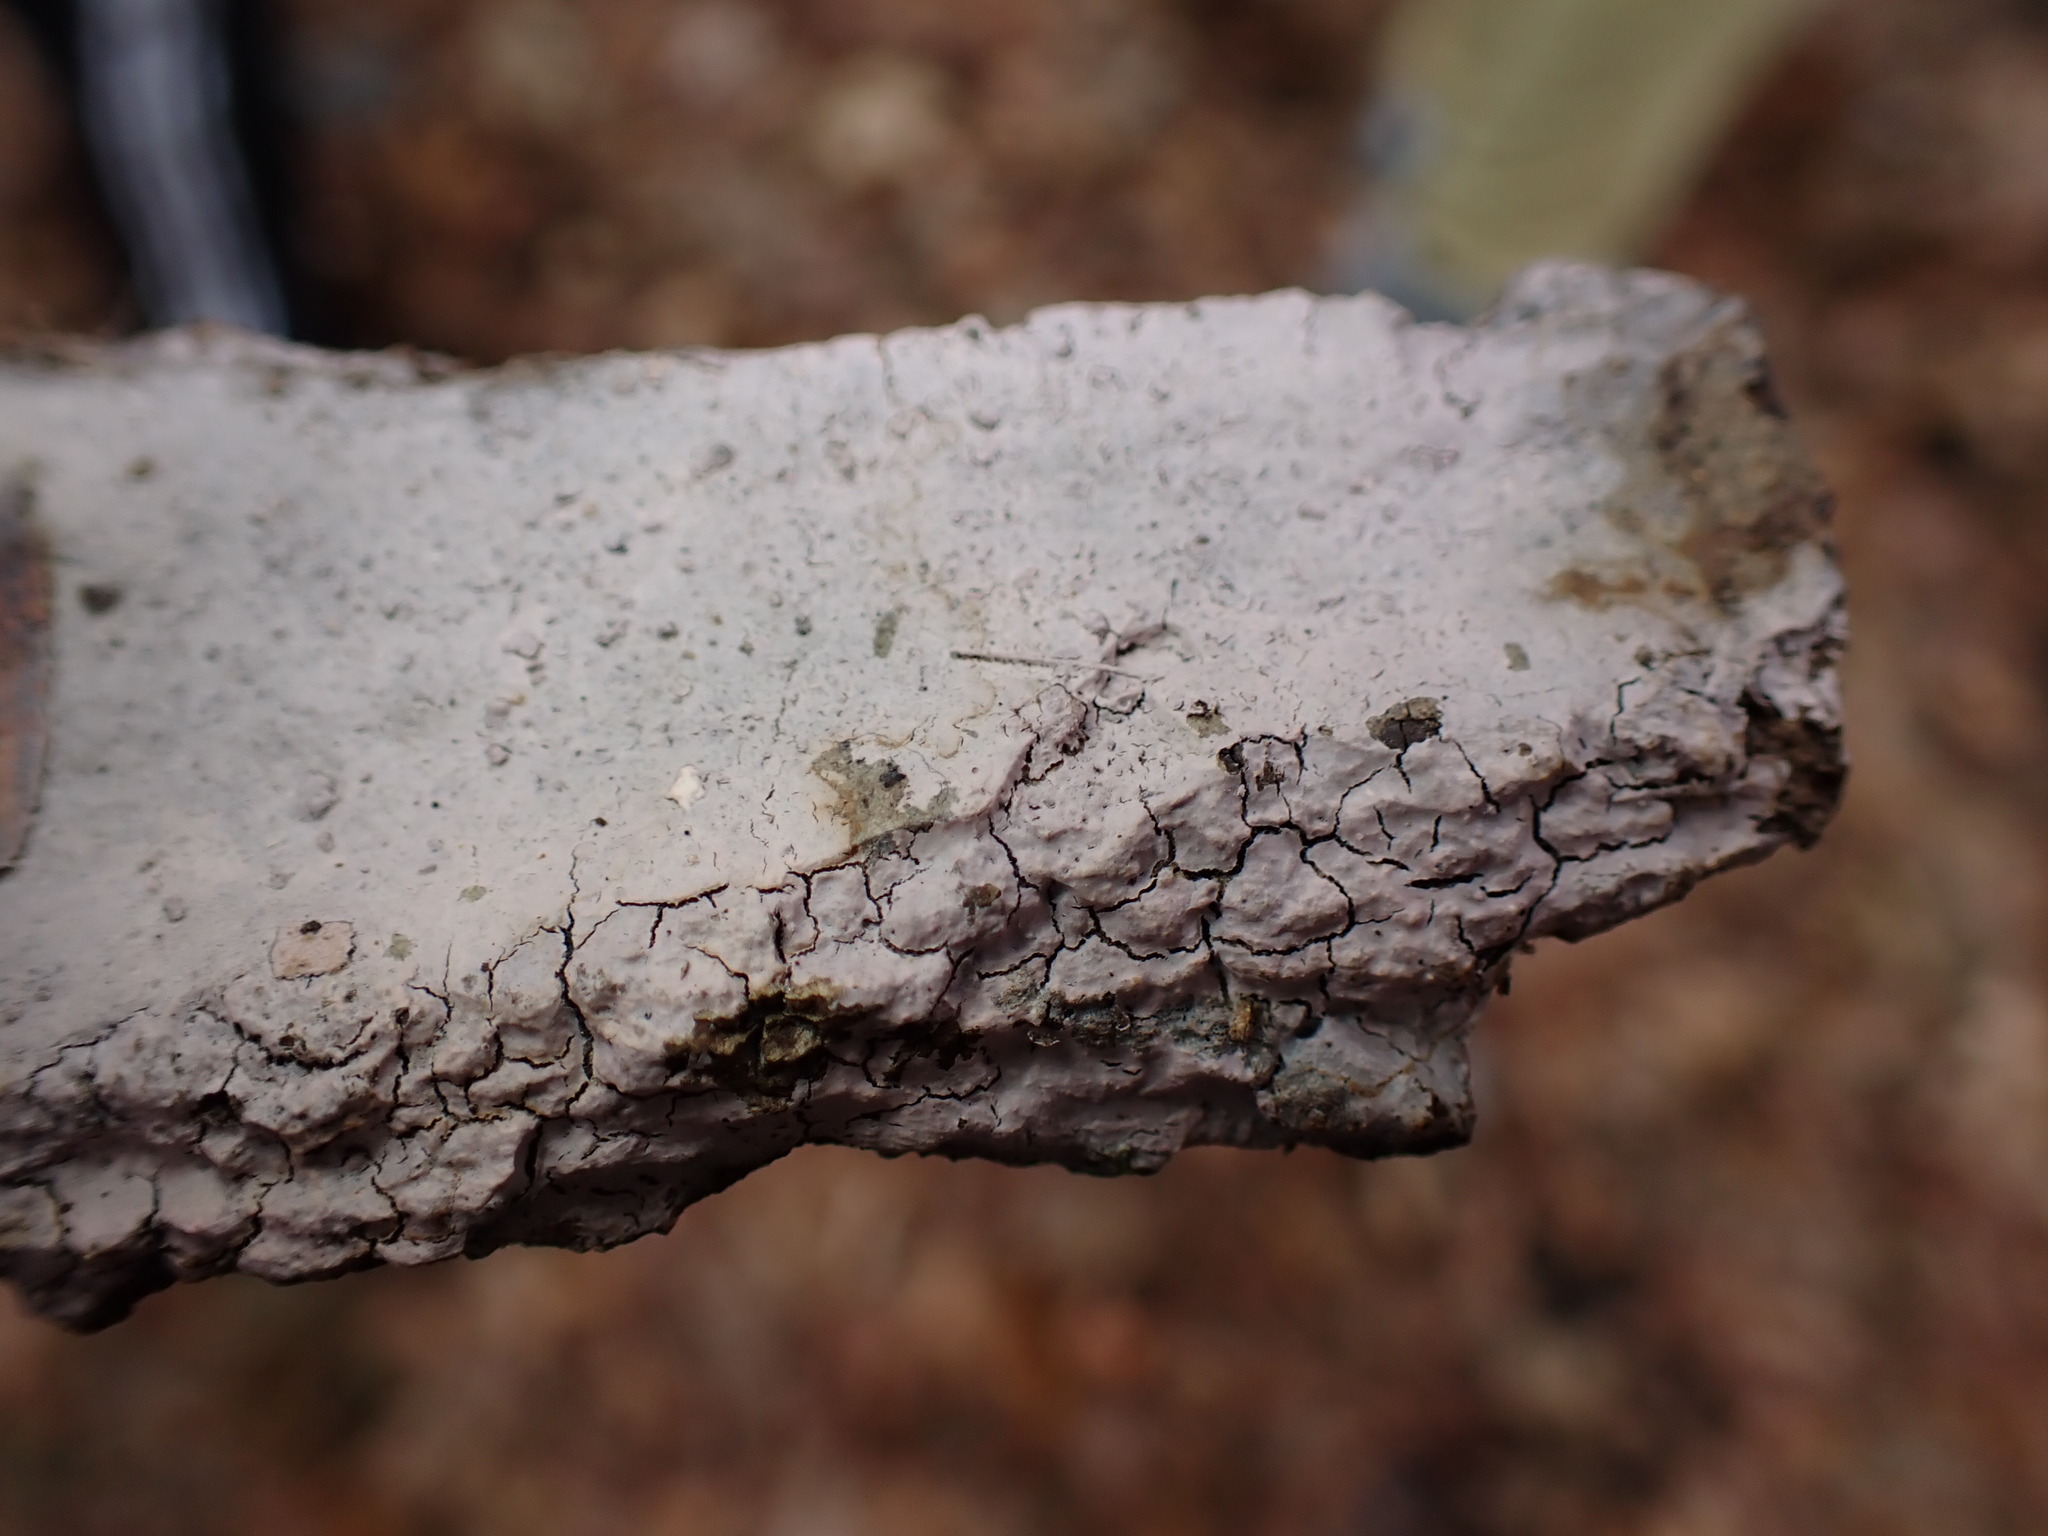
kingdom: Fungi
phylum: Basidiomycota
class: Agaricomycetes
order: Cantharellales
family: Tulasnellaceae
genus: Tulasnella
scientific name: Tulasnella violea
